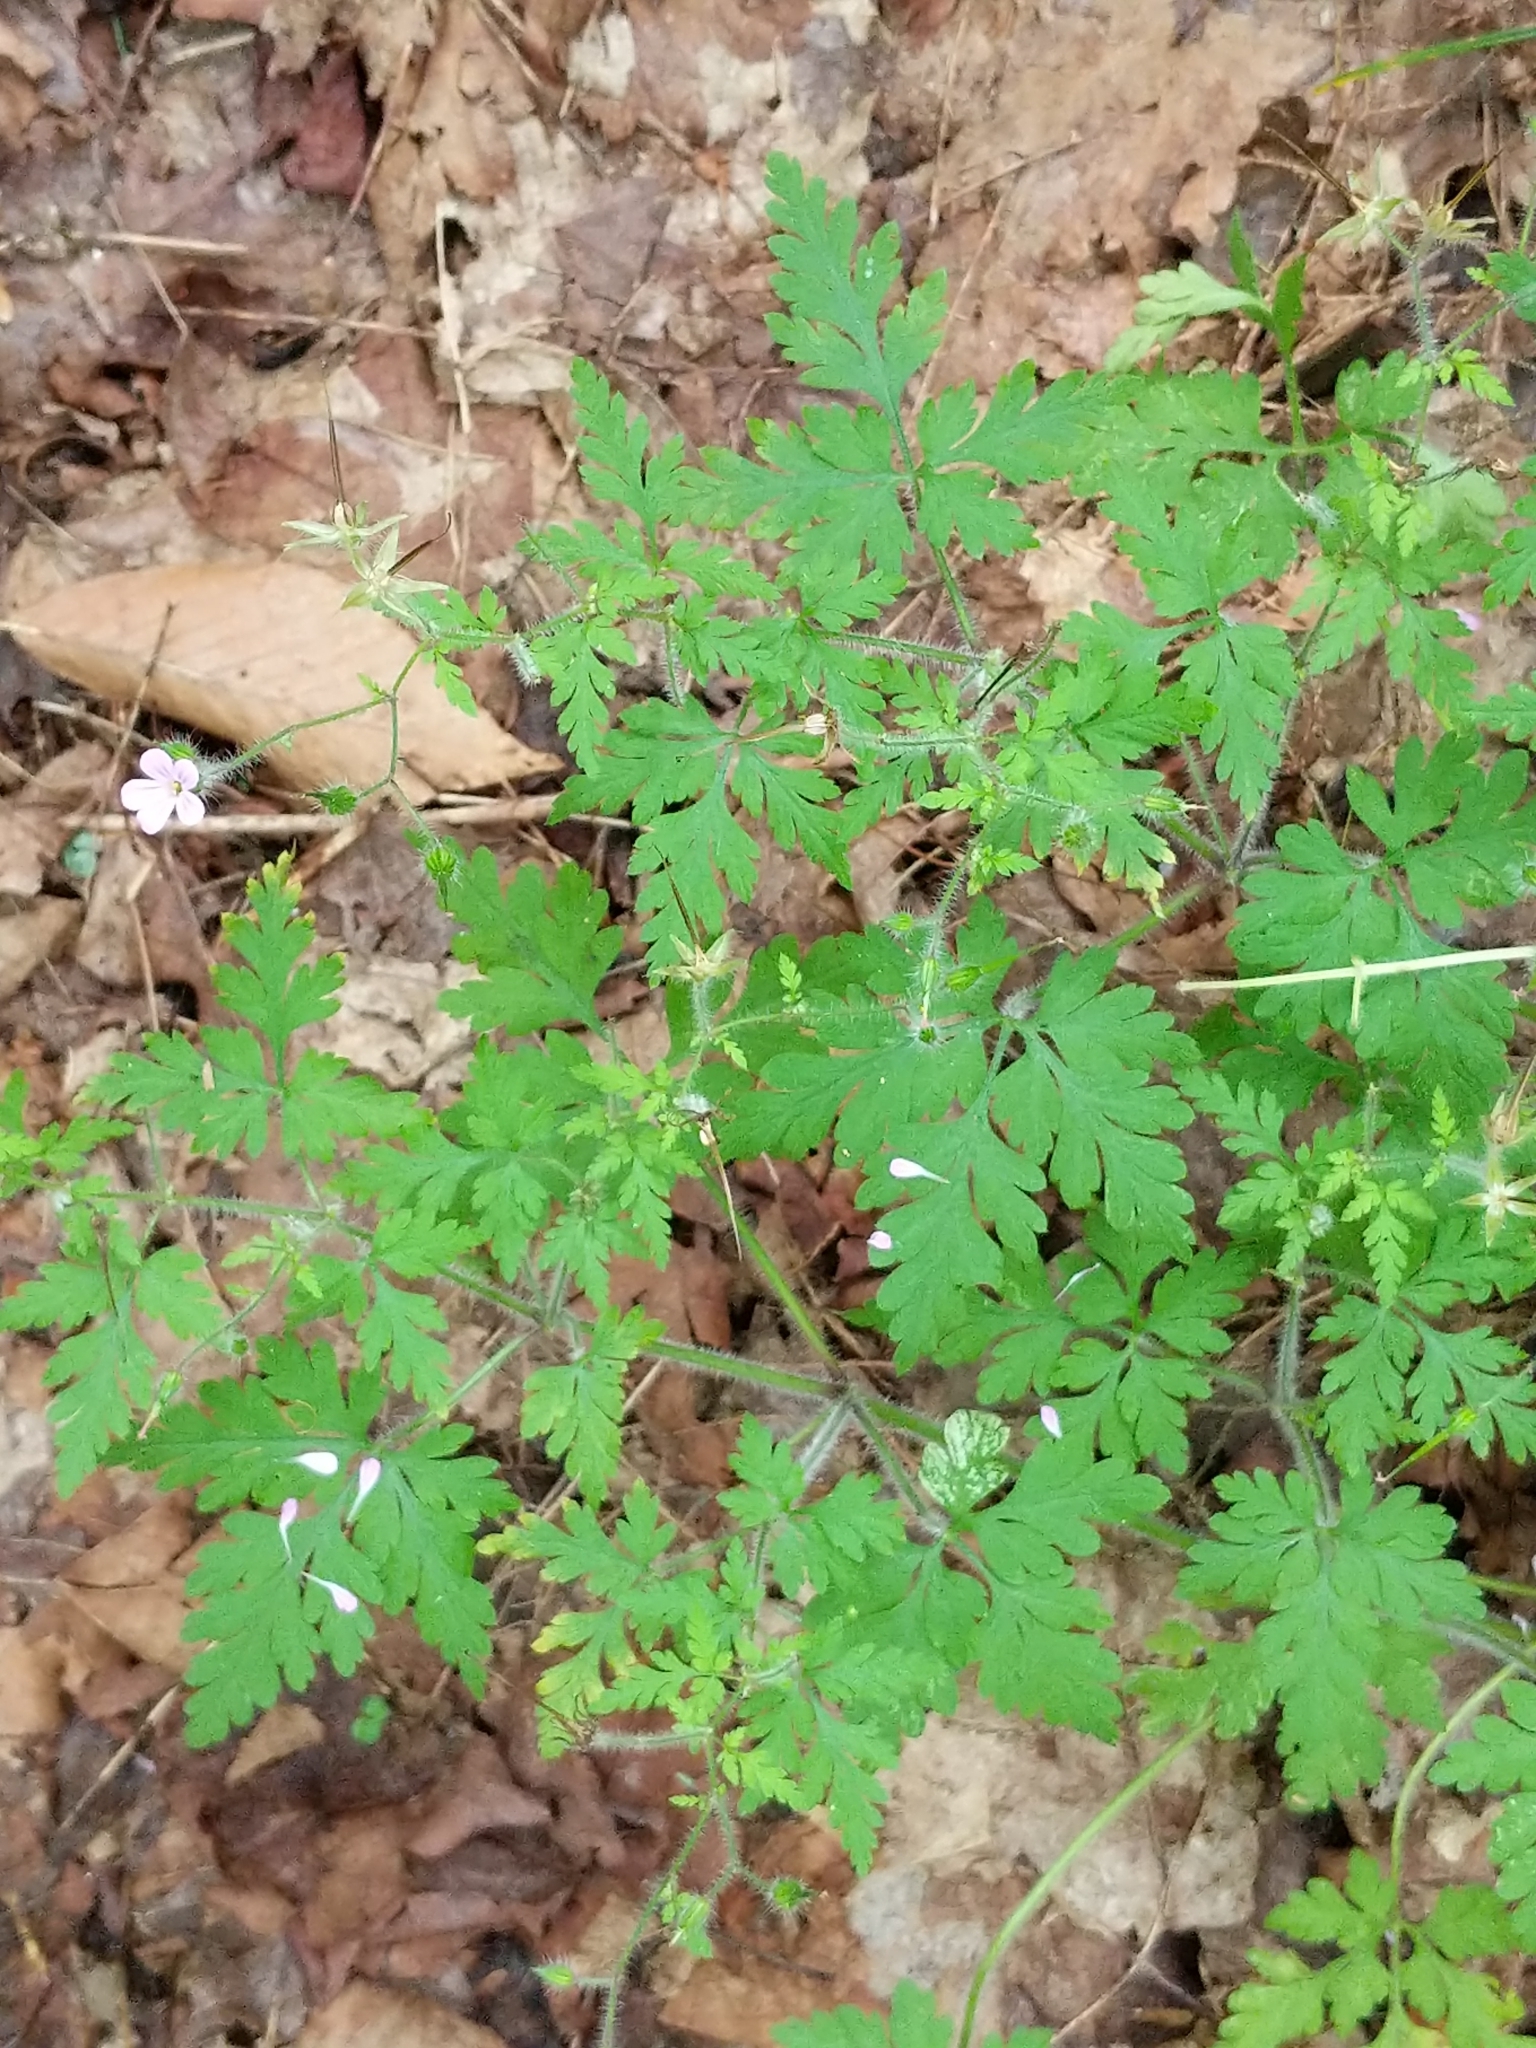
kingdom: Plantae
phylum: Tracheophyta
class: Magnoliopsida
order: Geraniales
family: Geraniaceae
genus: Geranium
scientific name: Geranium robertianum
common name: Herb-robert
